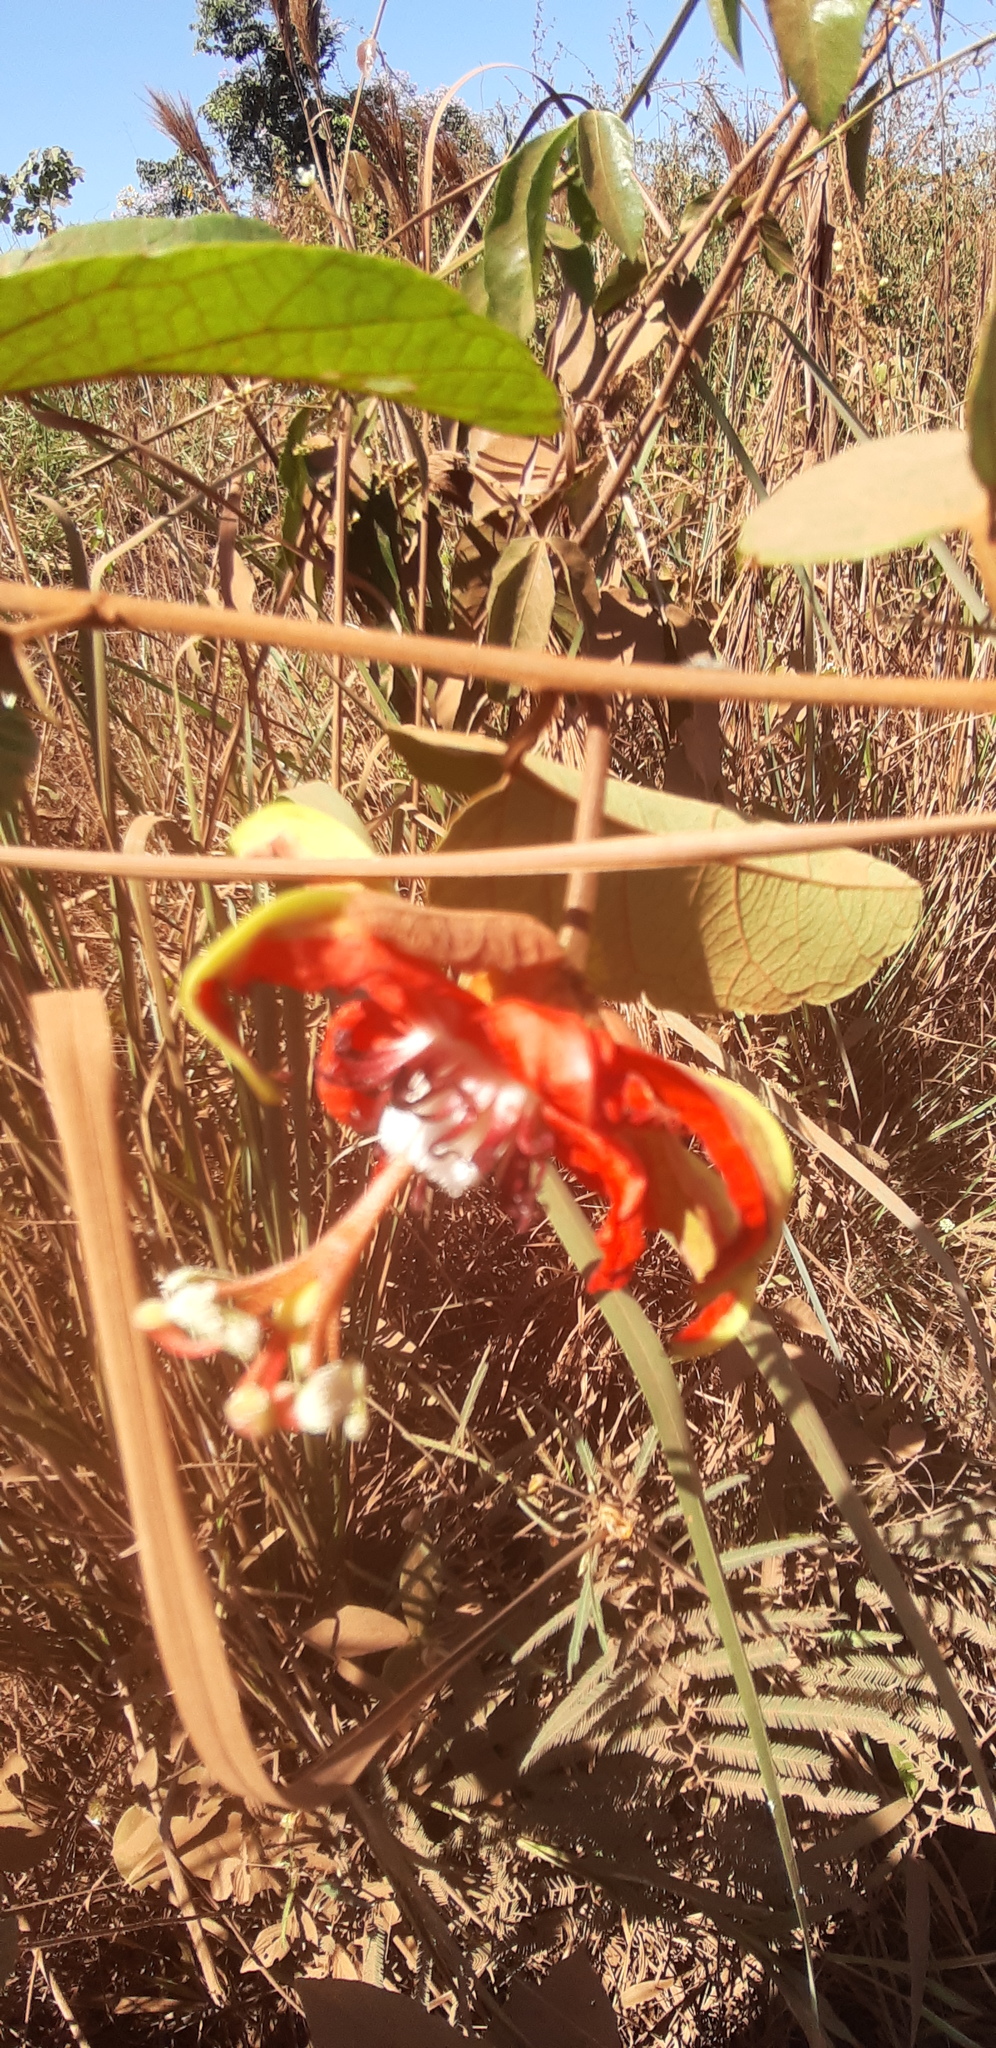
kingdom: Plantae
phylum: Tracheophyta
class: Magnoliopsida
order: Malpighiales
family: Passifloraceae
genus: Passiflora
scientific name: Passiflora miniata
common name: Red granadilla
